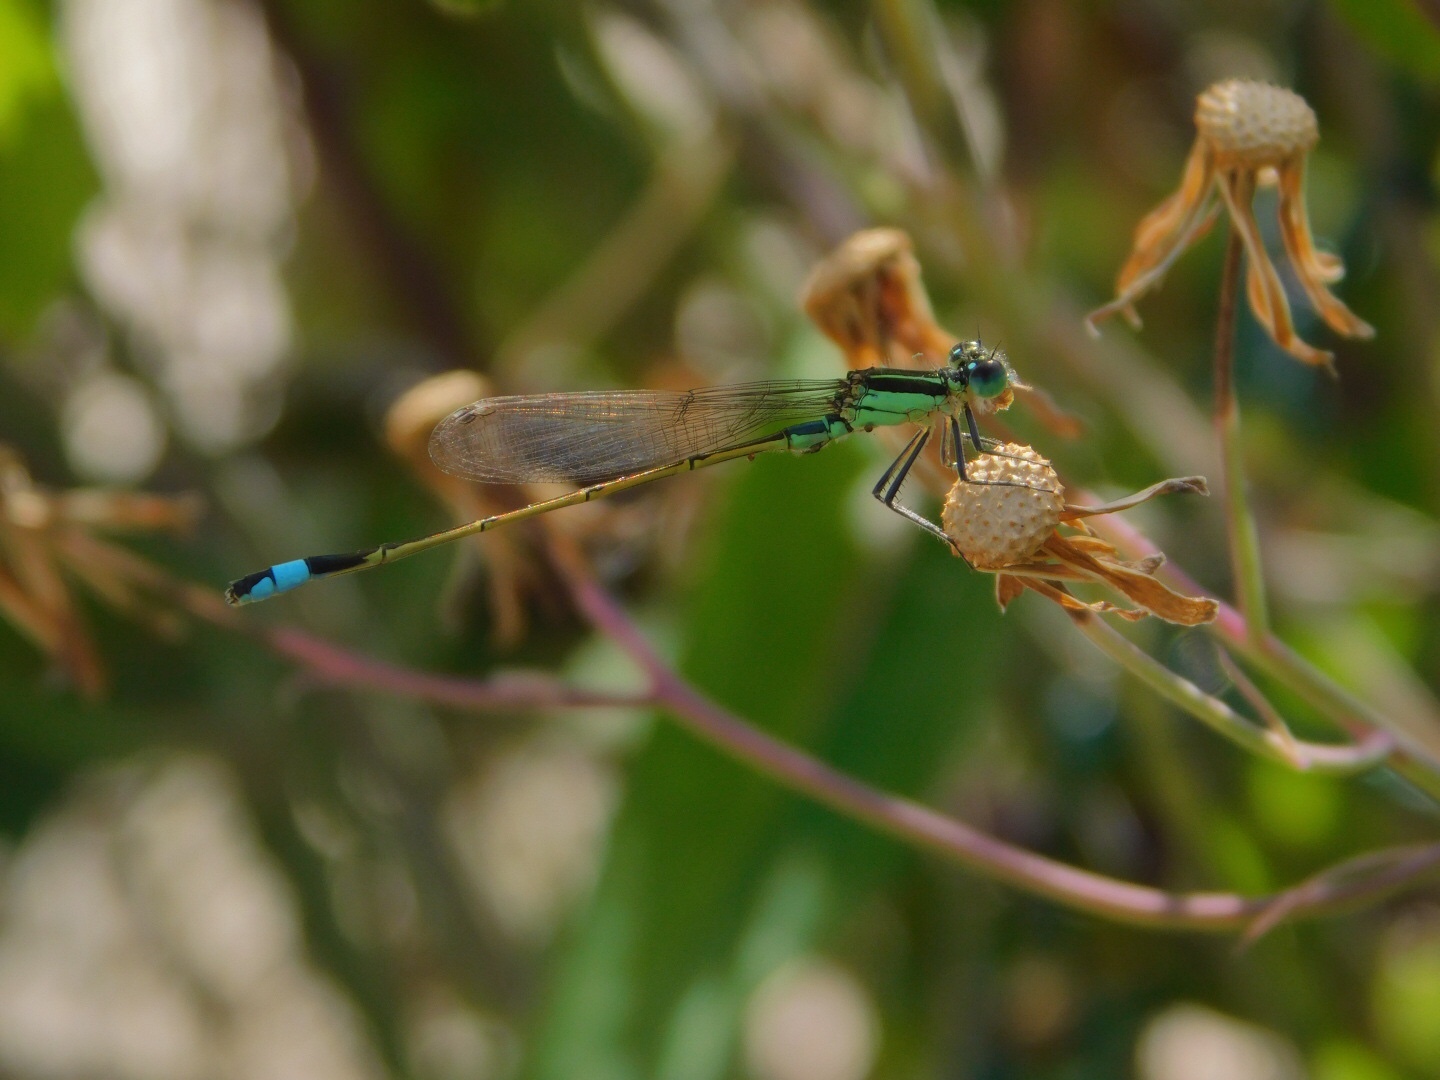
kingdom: Animalia
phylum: Arthropoda
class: Insecta
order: Odonata
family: Coenagrionidae
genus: Ischnura
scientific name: Ischnura ramburii
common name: Rambur's forktail
